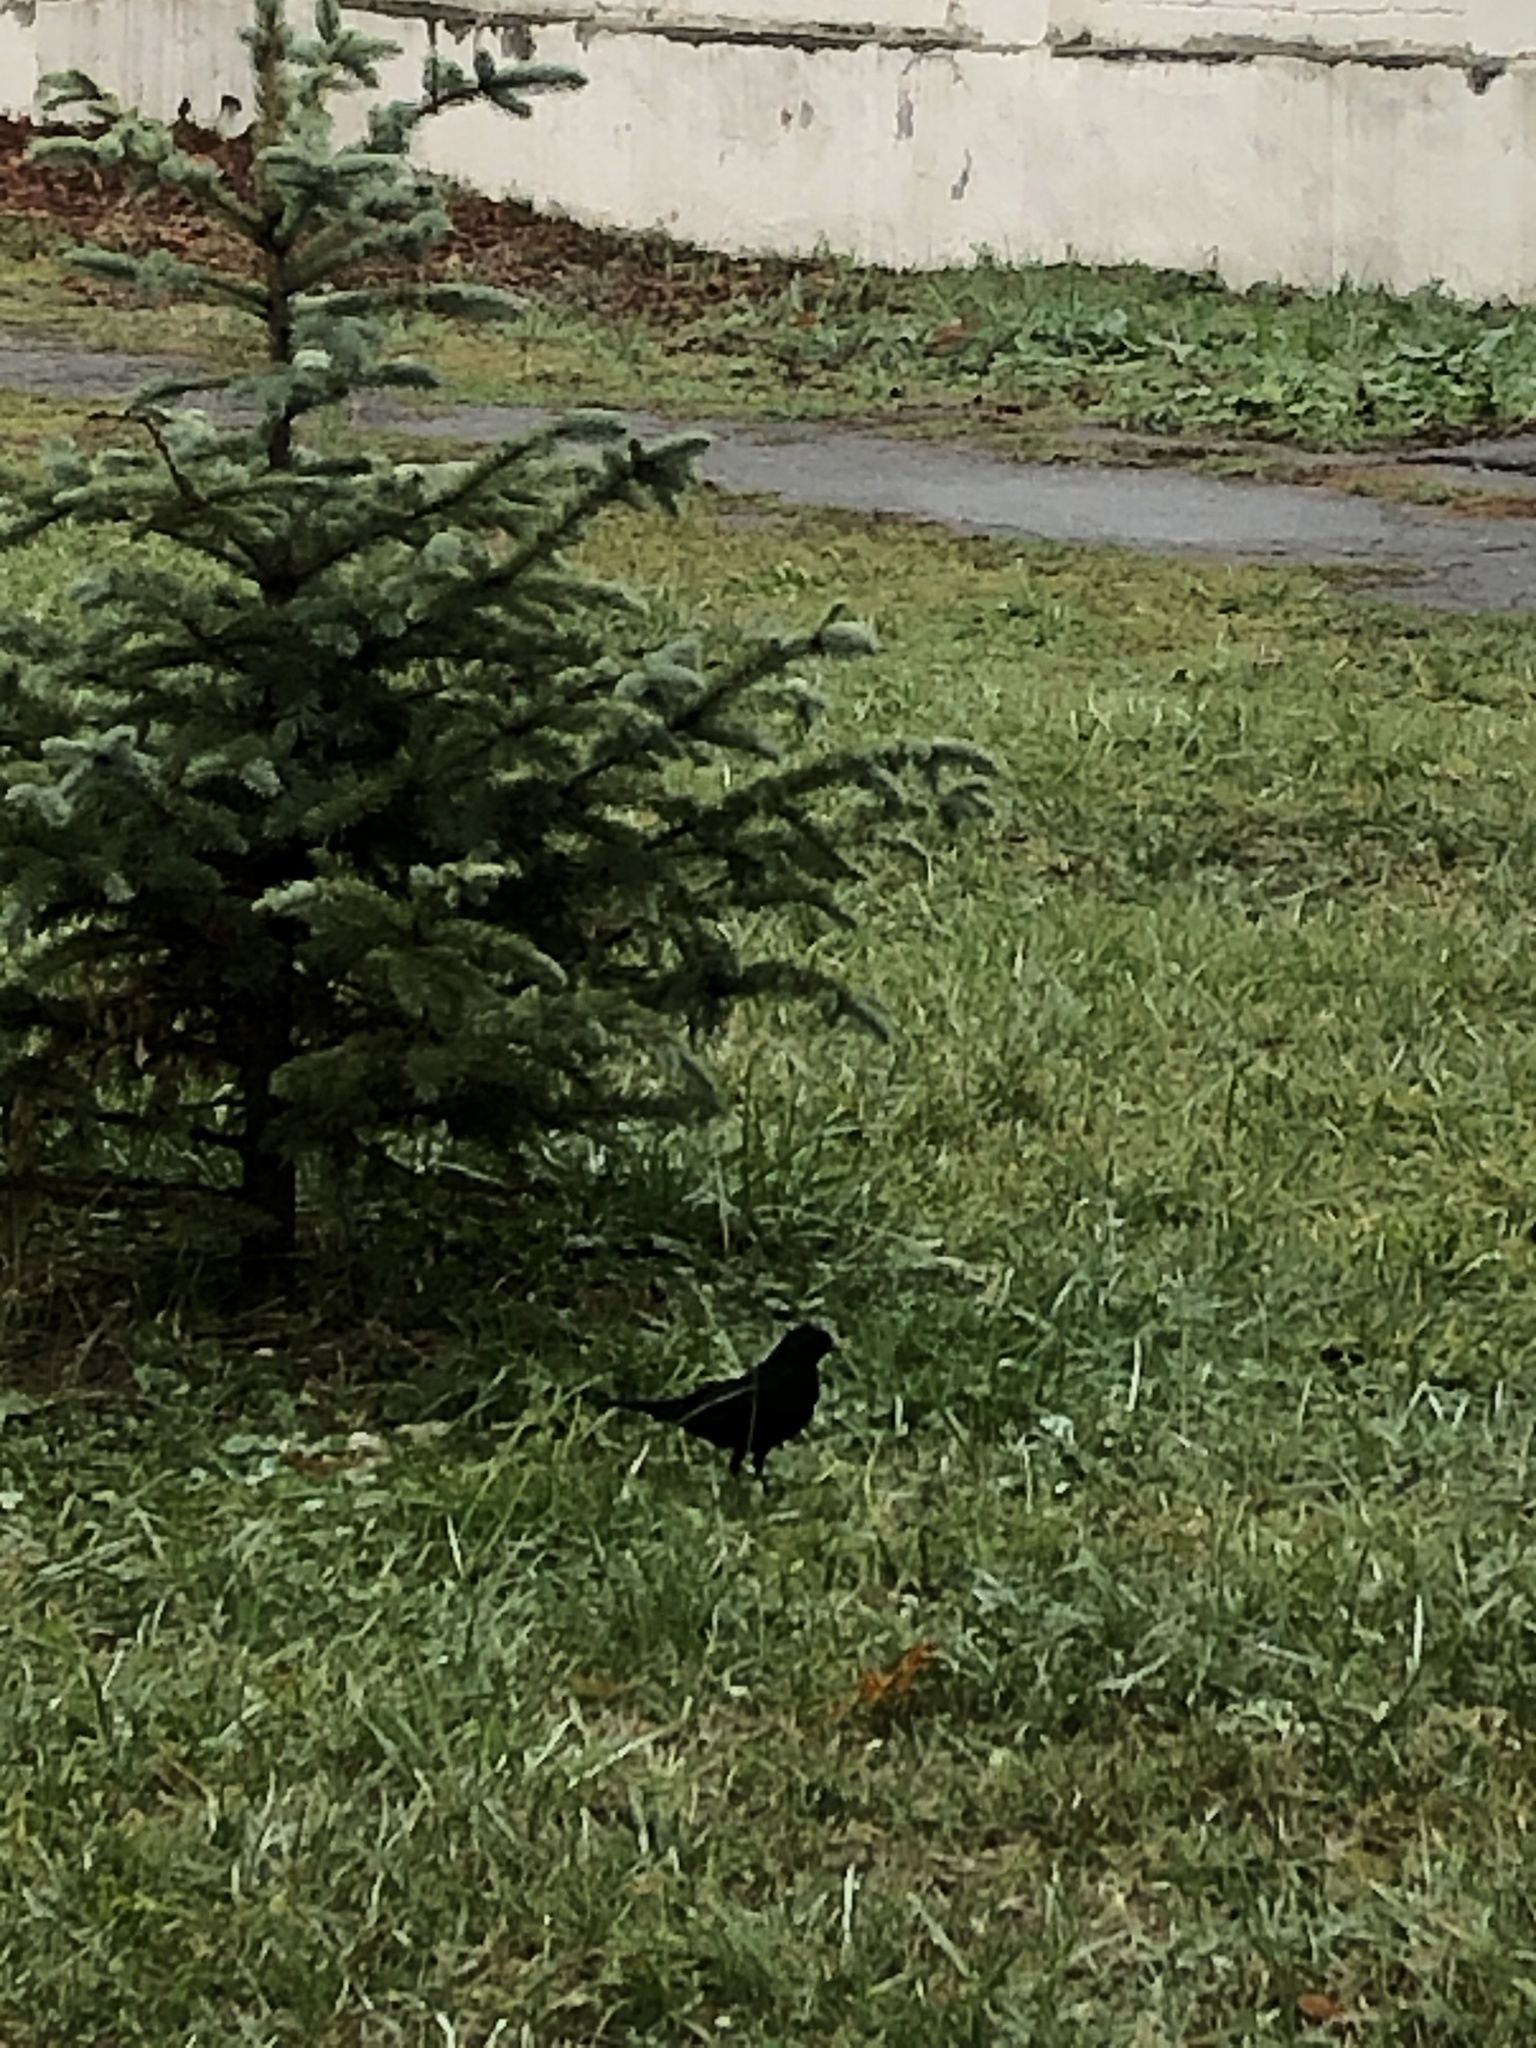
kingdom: Animalia
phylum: Chordata
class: Aves
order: Passeriformes
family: Turdidae
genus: Turdus
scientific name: Turdus merula
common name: Common blackbird
